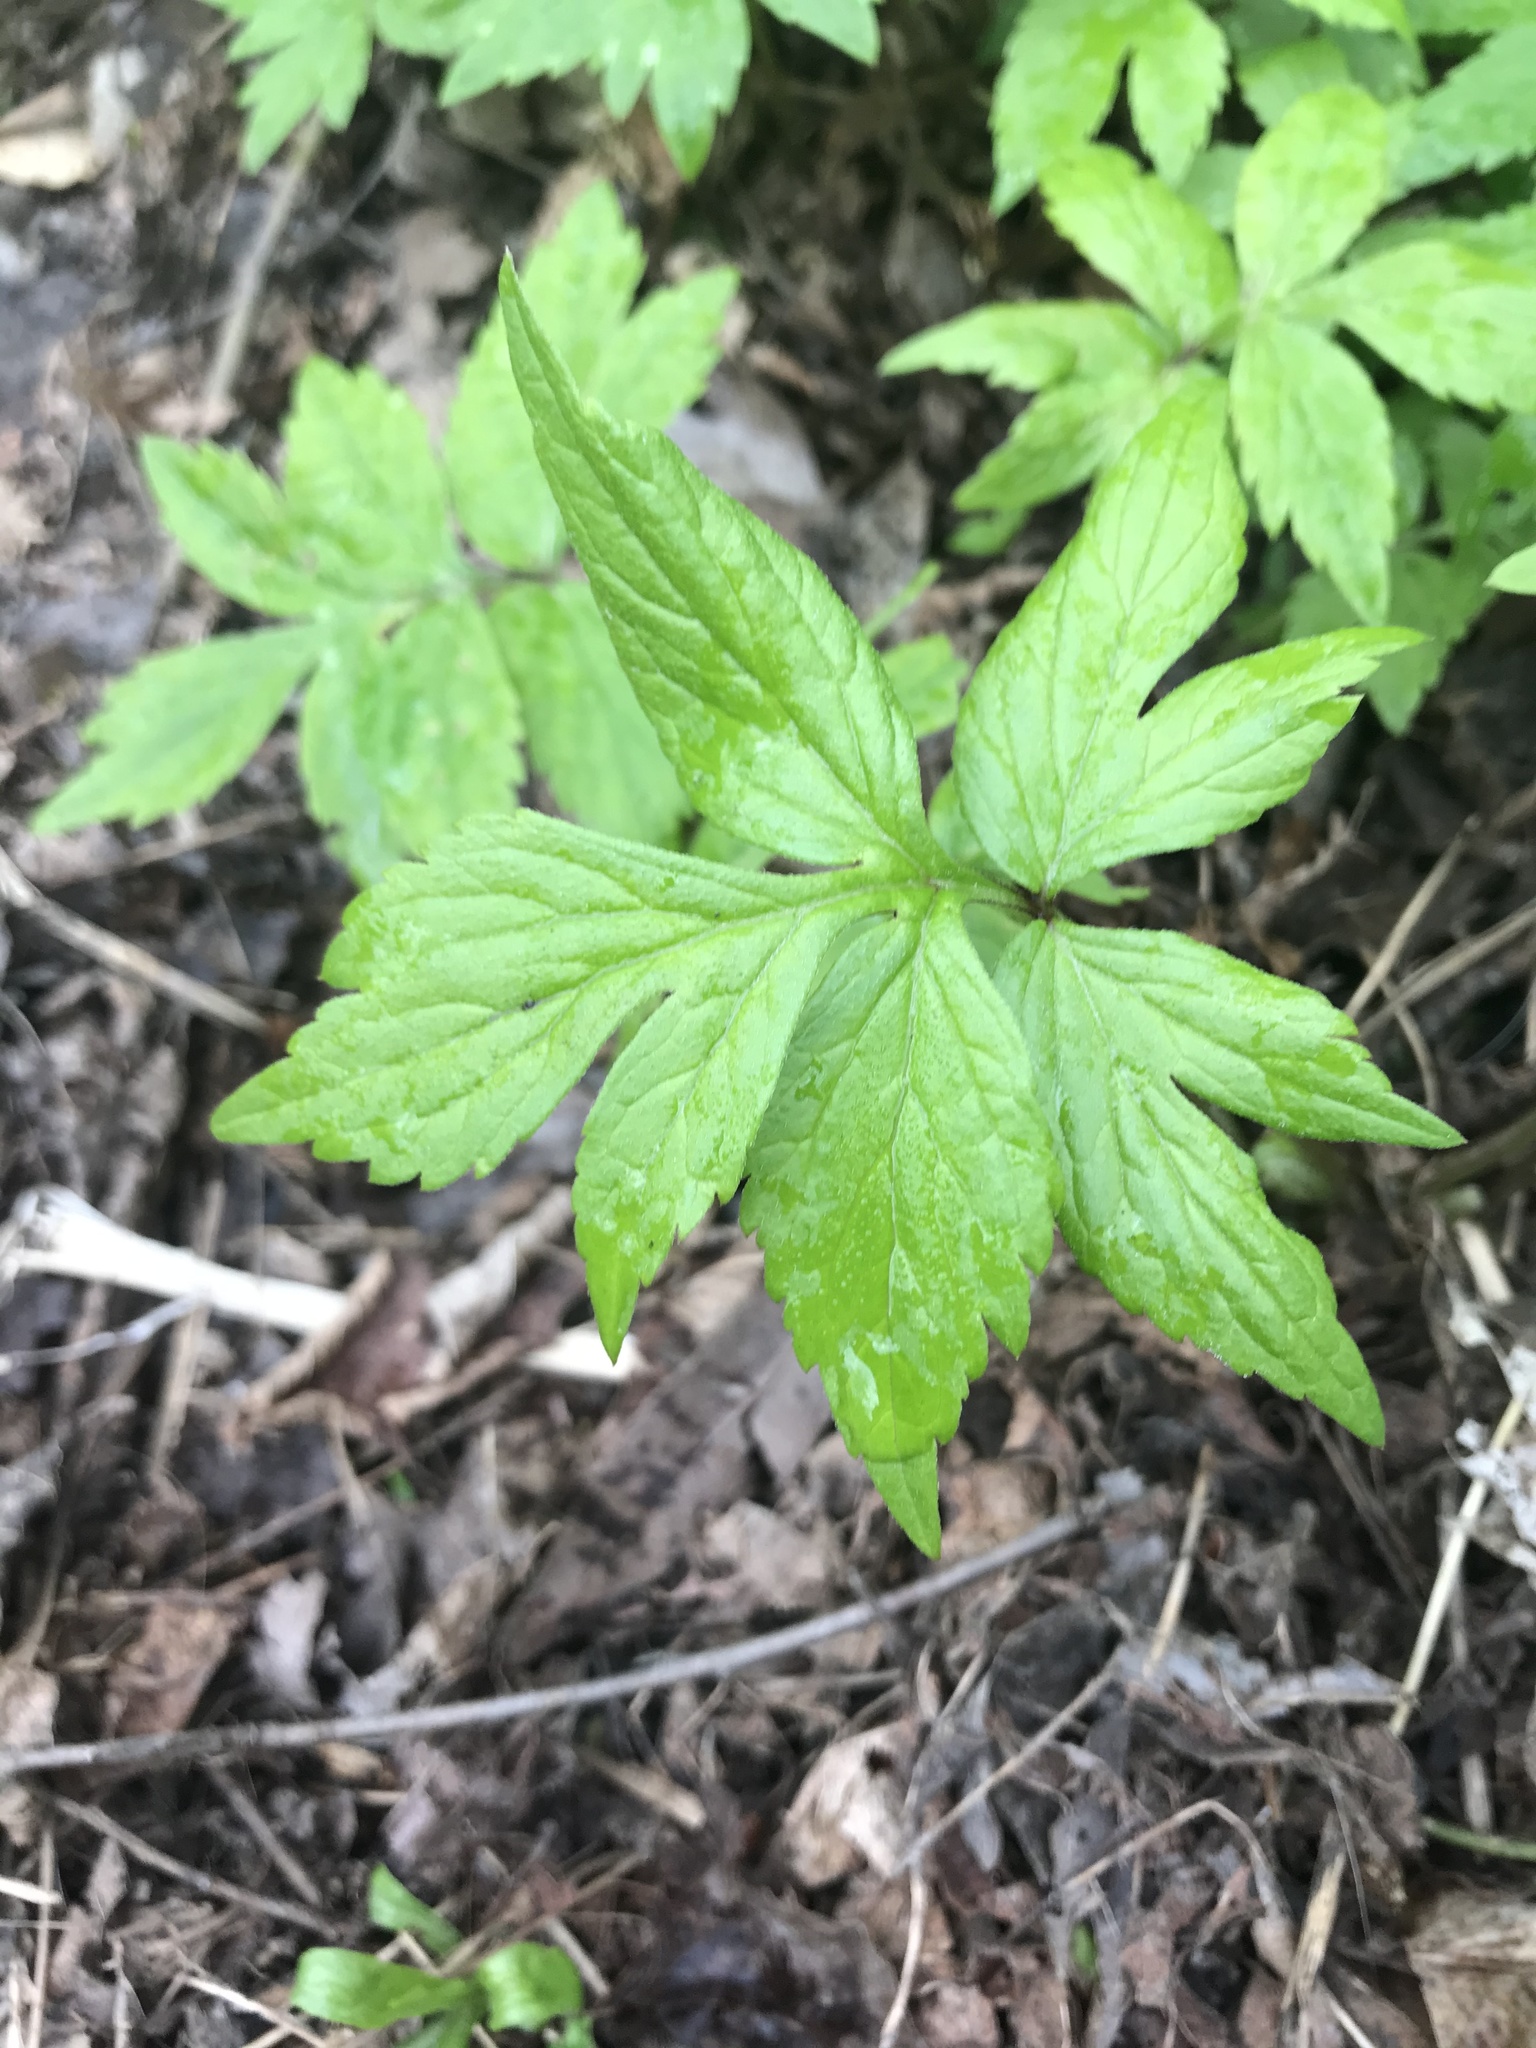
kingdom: Plantae
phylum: Tracheophyta
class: Magnoliopsida
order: Boraginales
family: Hydrophyllaceae
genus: Hydrophyllum
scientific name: Hydrophyllum virginianum
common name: Virginia waterleaf
